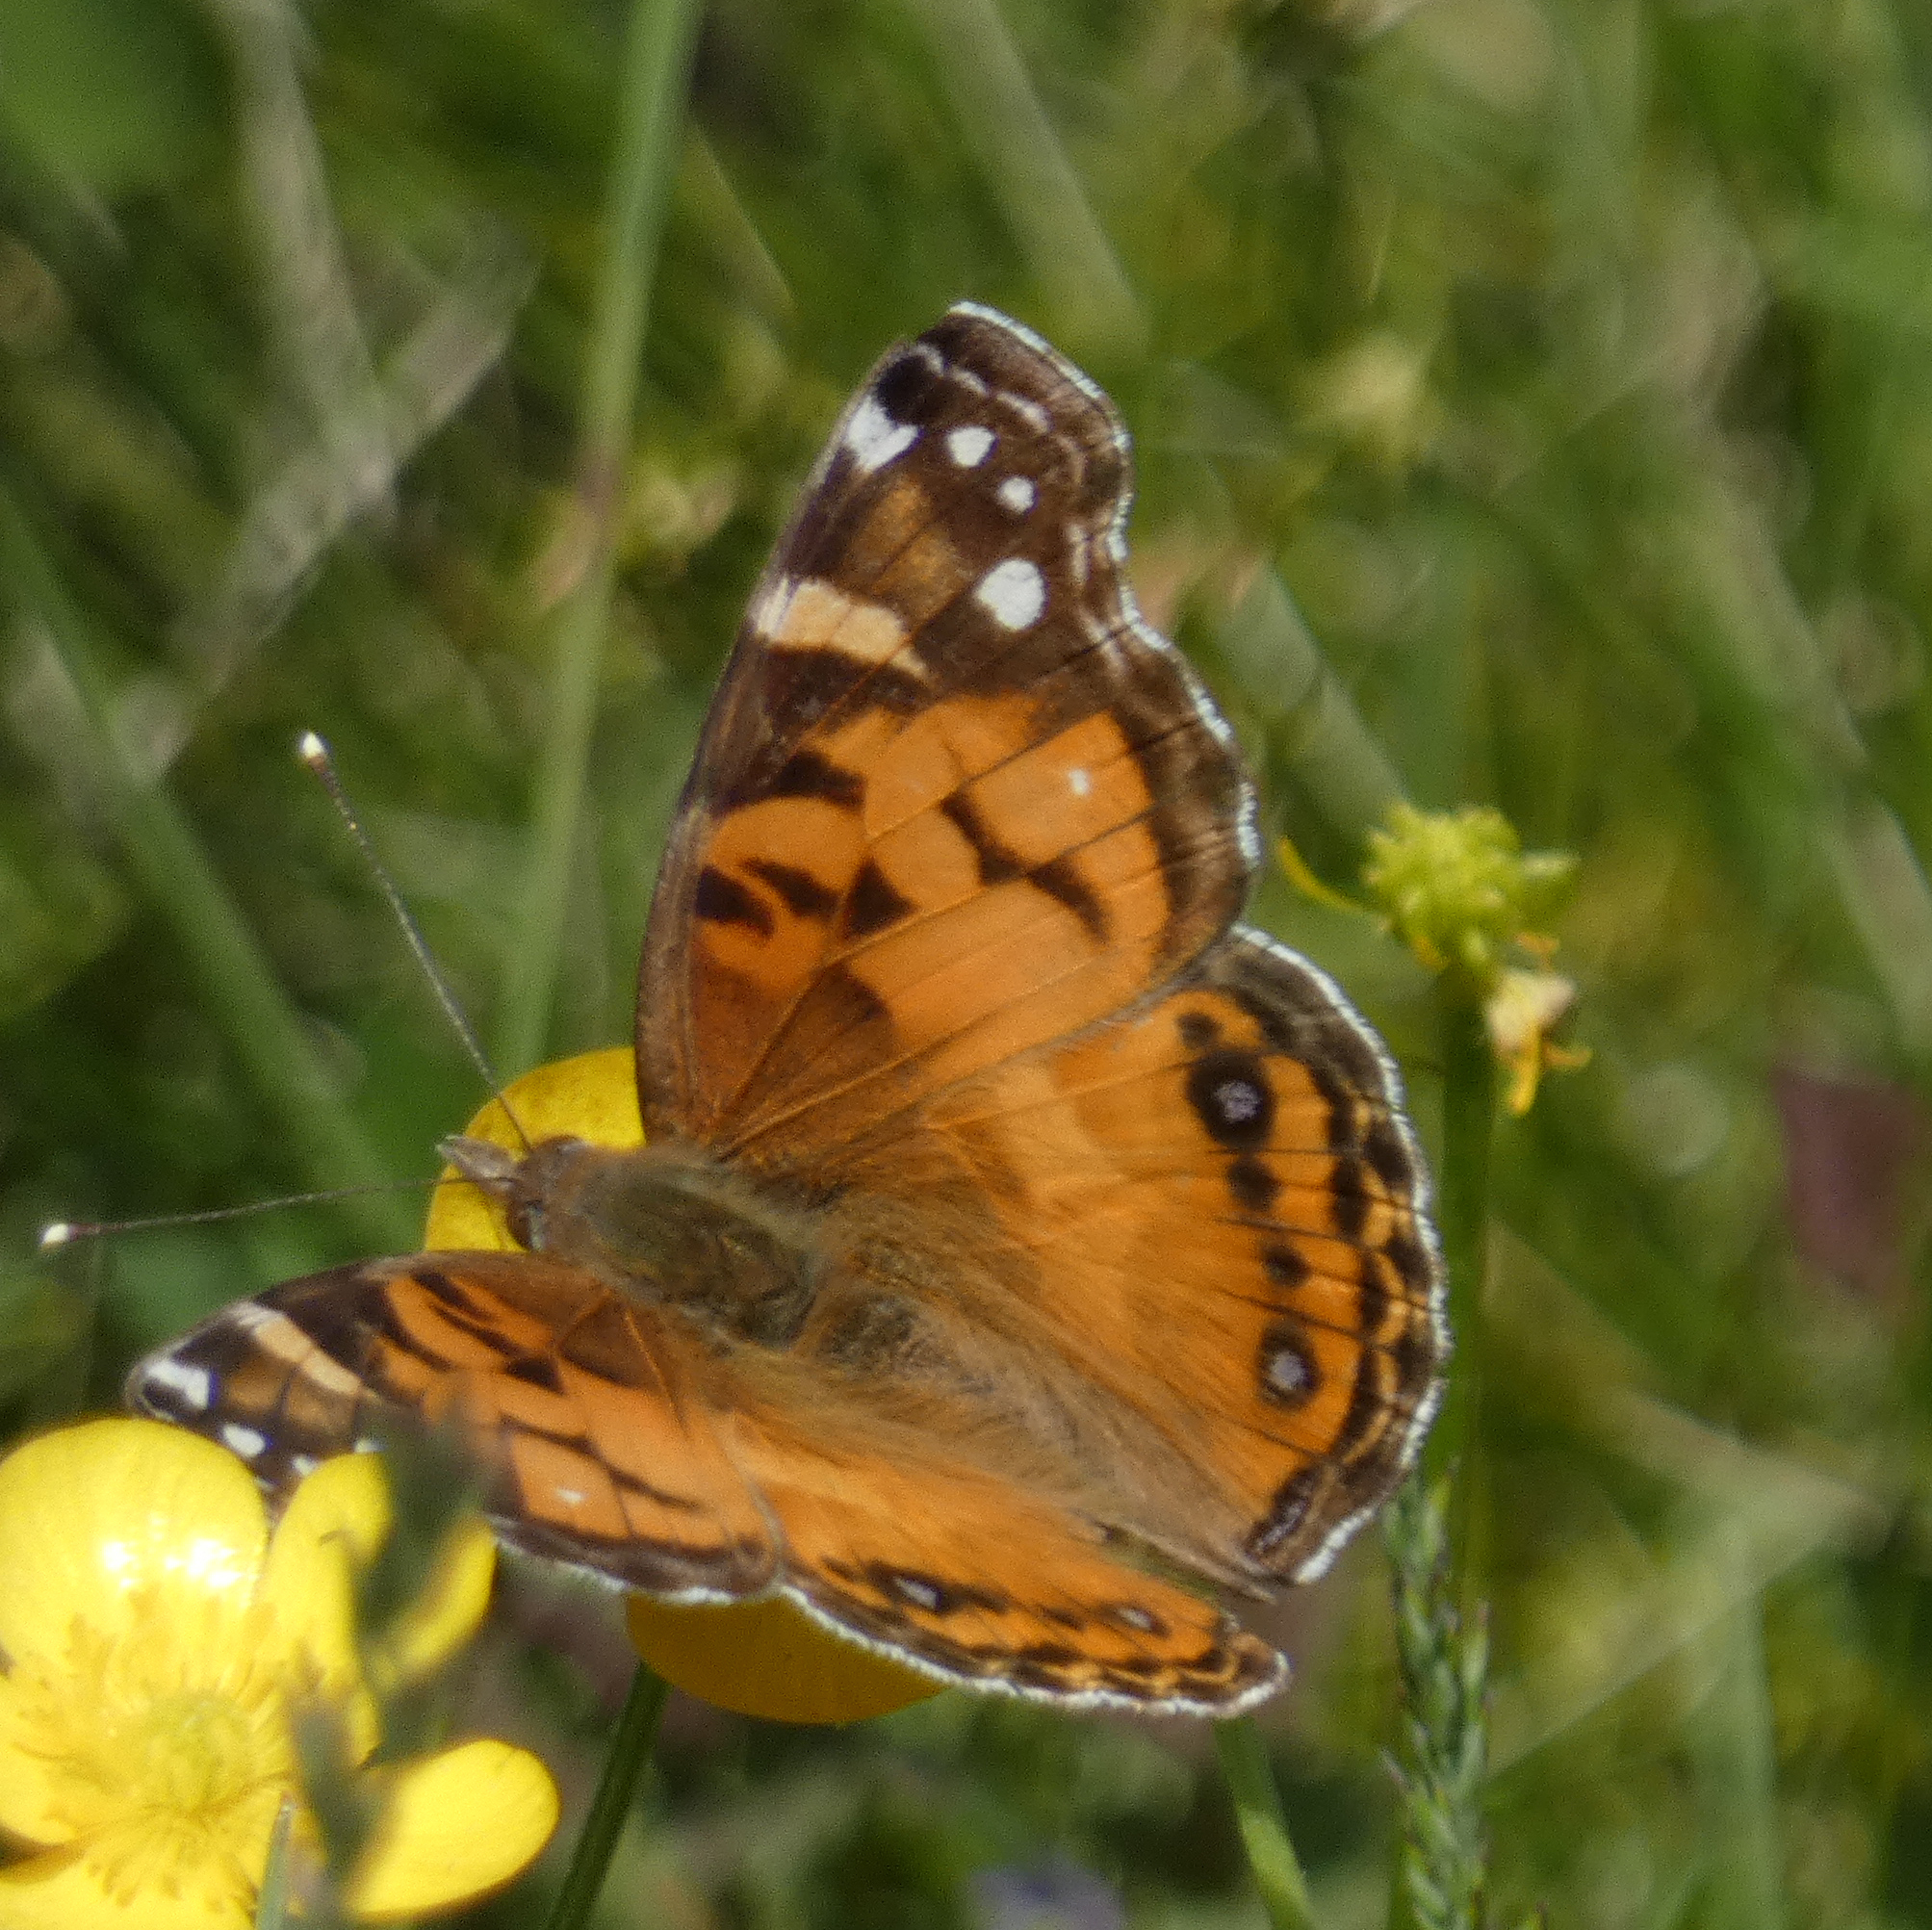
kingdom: Animalia
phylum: Arthropoda
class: Insecta
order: Lepidoptera
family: Nymphalidae
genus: Vanessa
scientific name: Vanessa virginiensis
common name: American lady
